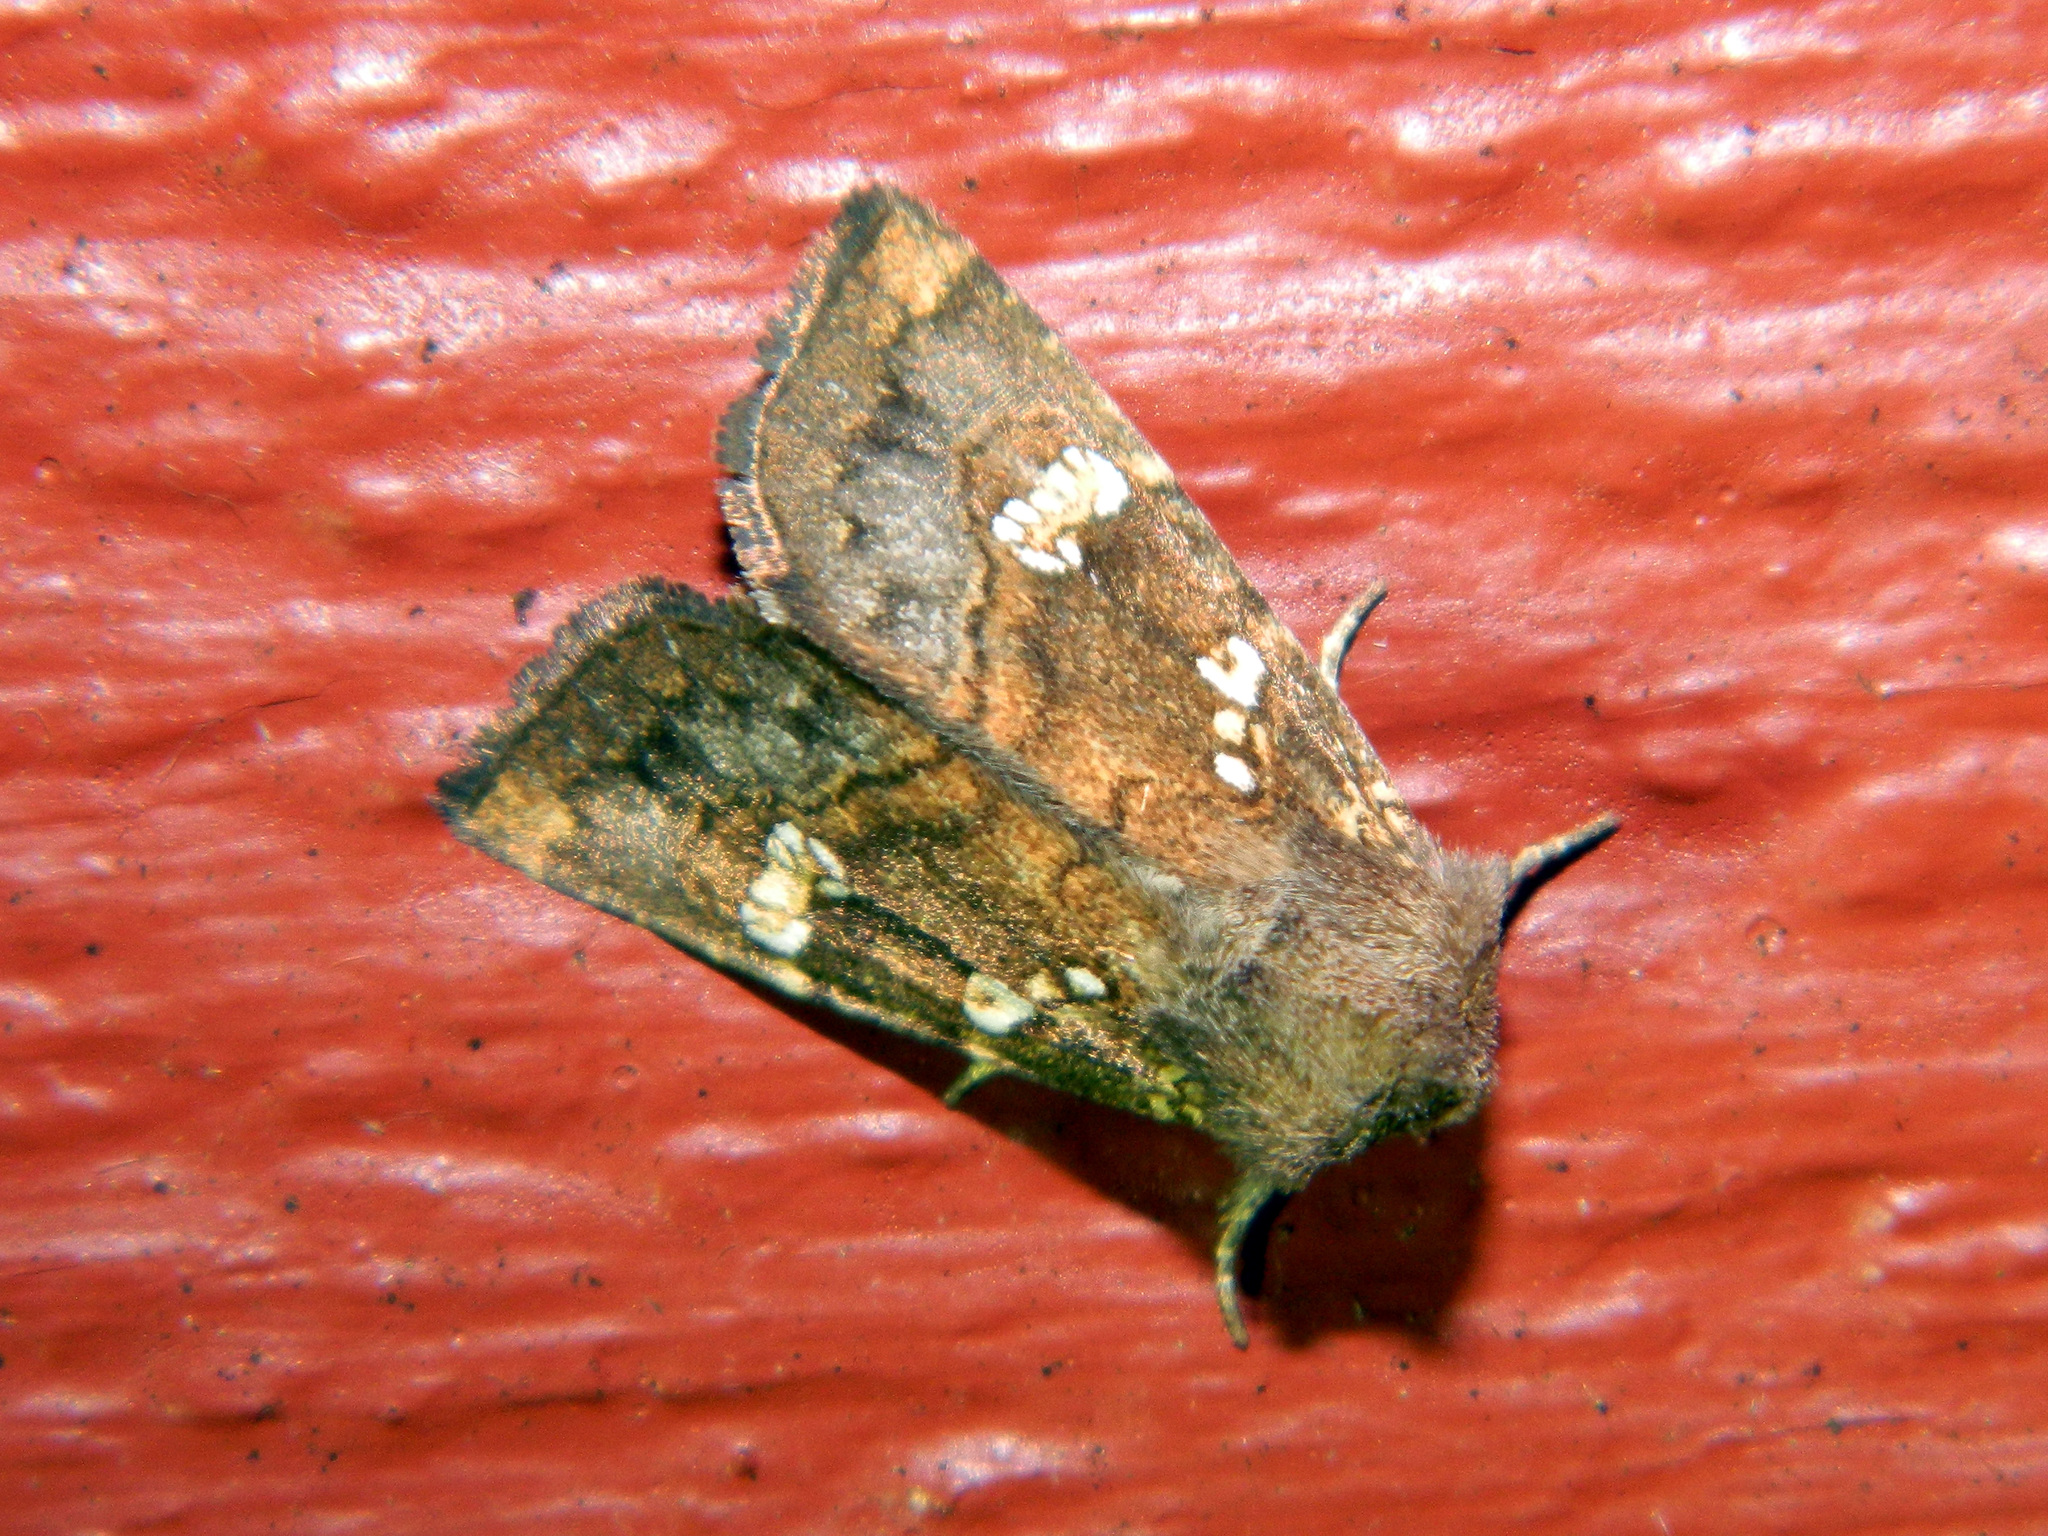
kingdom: Animalia
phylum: Arthropoda
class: Insecta
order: Lepidoptera
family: Noctuidae
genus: Papaipema
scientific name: Papaipema unimoda
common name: Meadow rue borer moth
